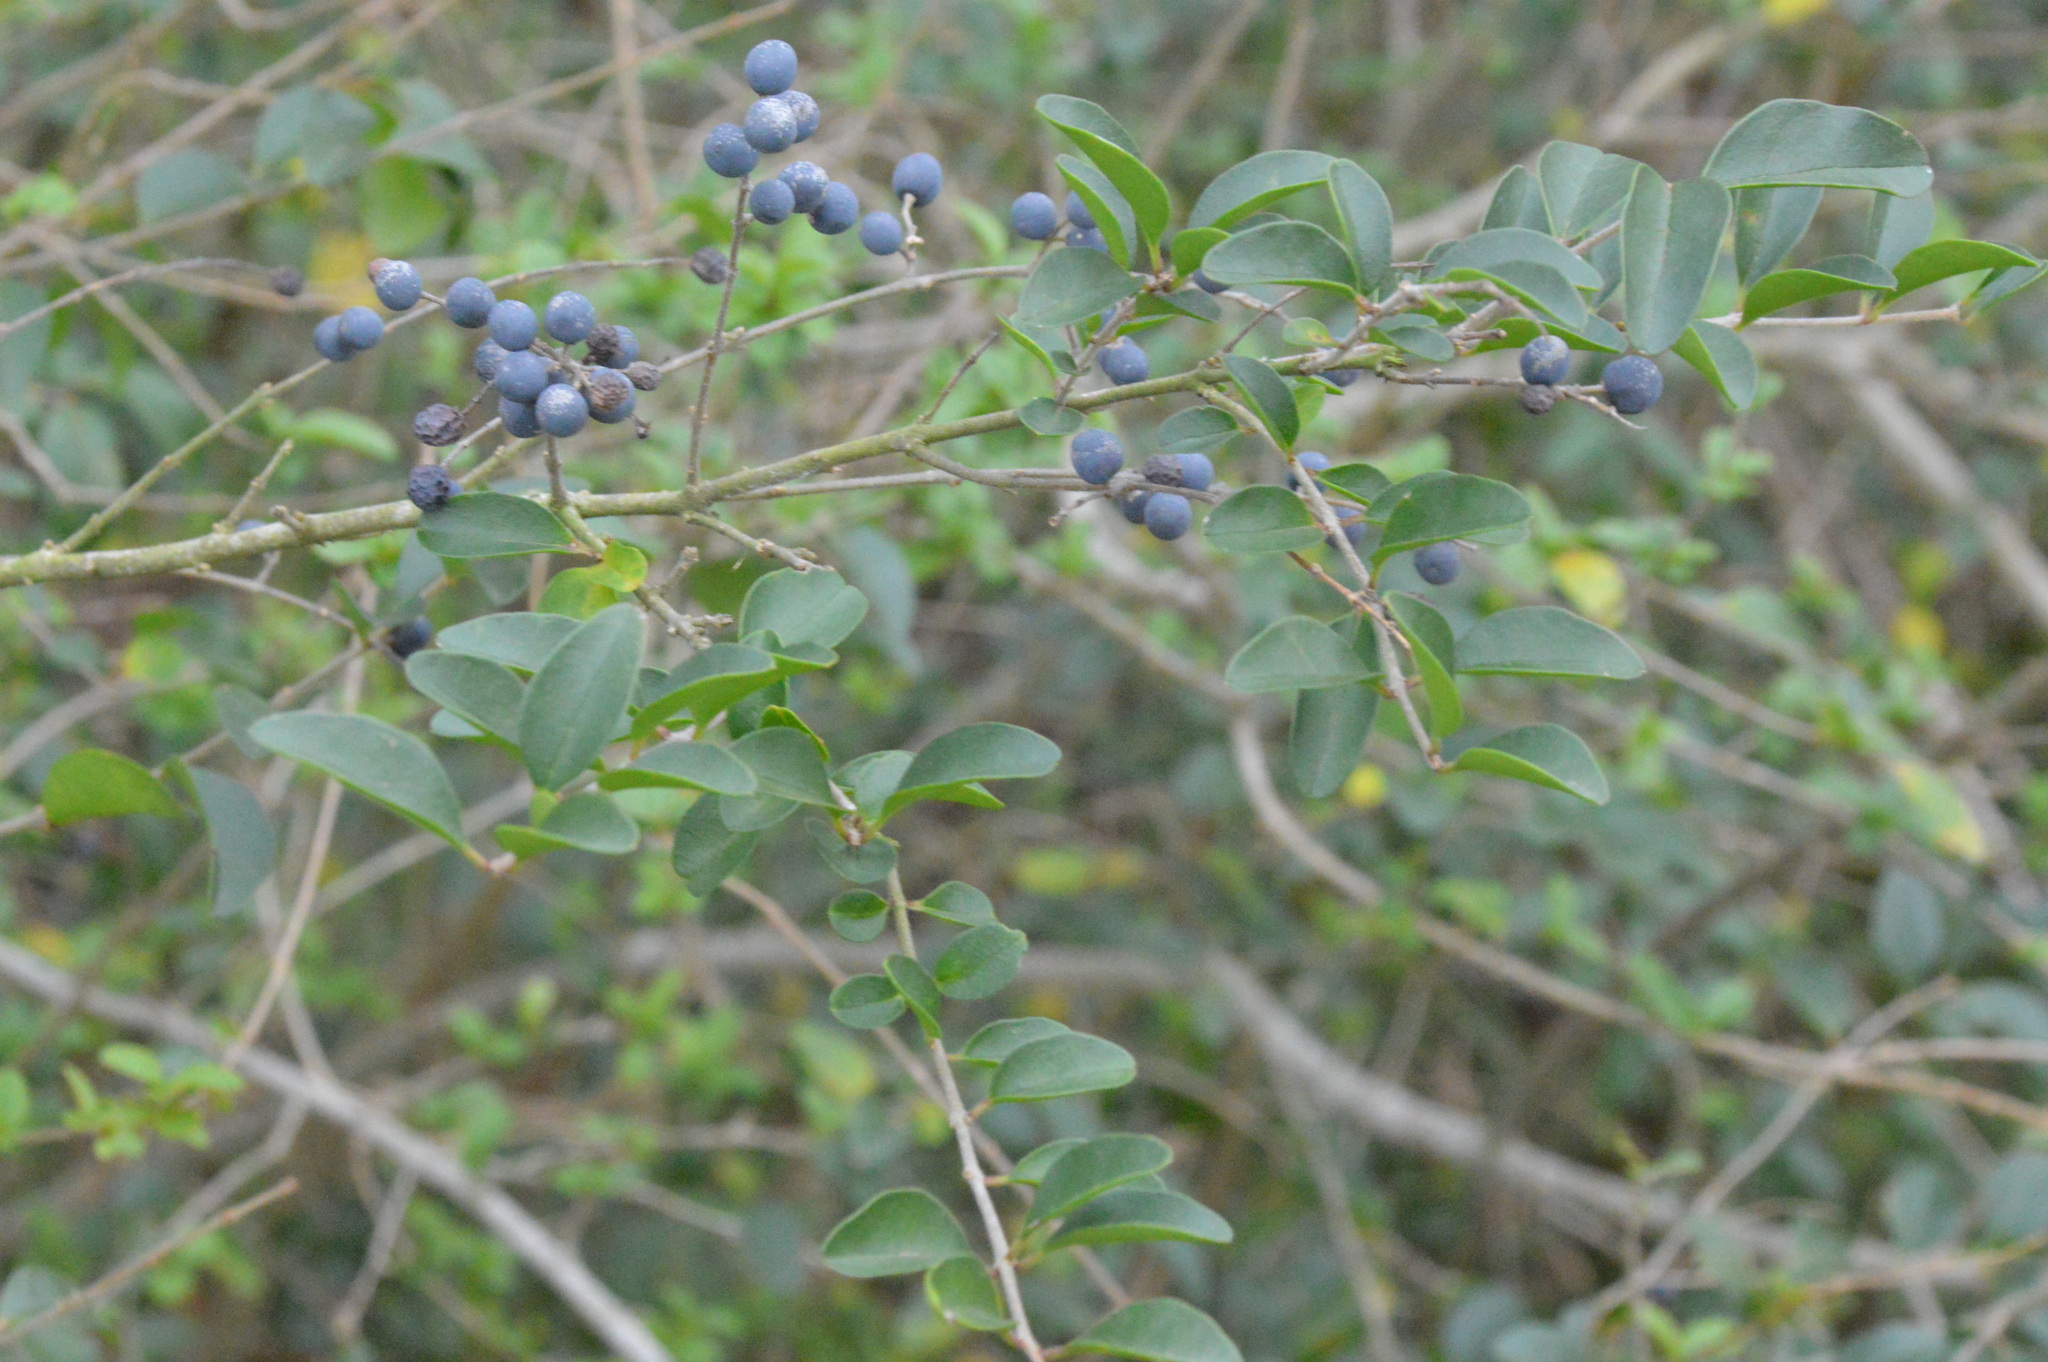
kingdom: Plantae
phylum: Tracheophyta
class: Magnoliopsida
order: Lamiales
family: Oleaceae
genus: Ligustrum
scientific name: Ligustrum sinense
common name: Chinese privet
